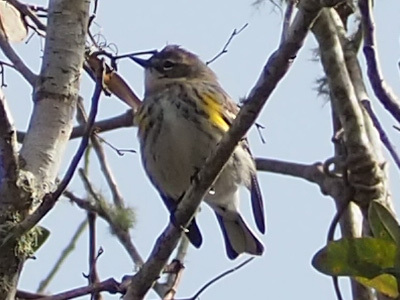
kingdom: Animalia
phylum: Chordata
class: Aves
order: Passeriformes
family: Parulidae
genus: Setophaga
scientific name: Setophaga coronata
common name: Myrtle warbler
